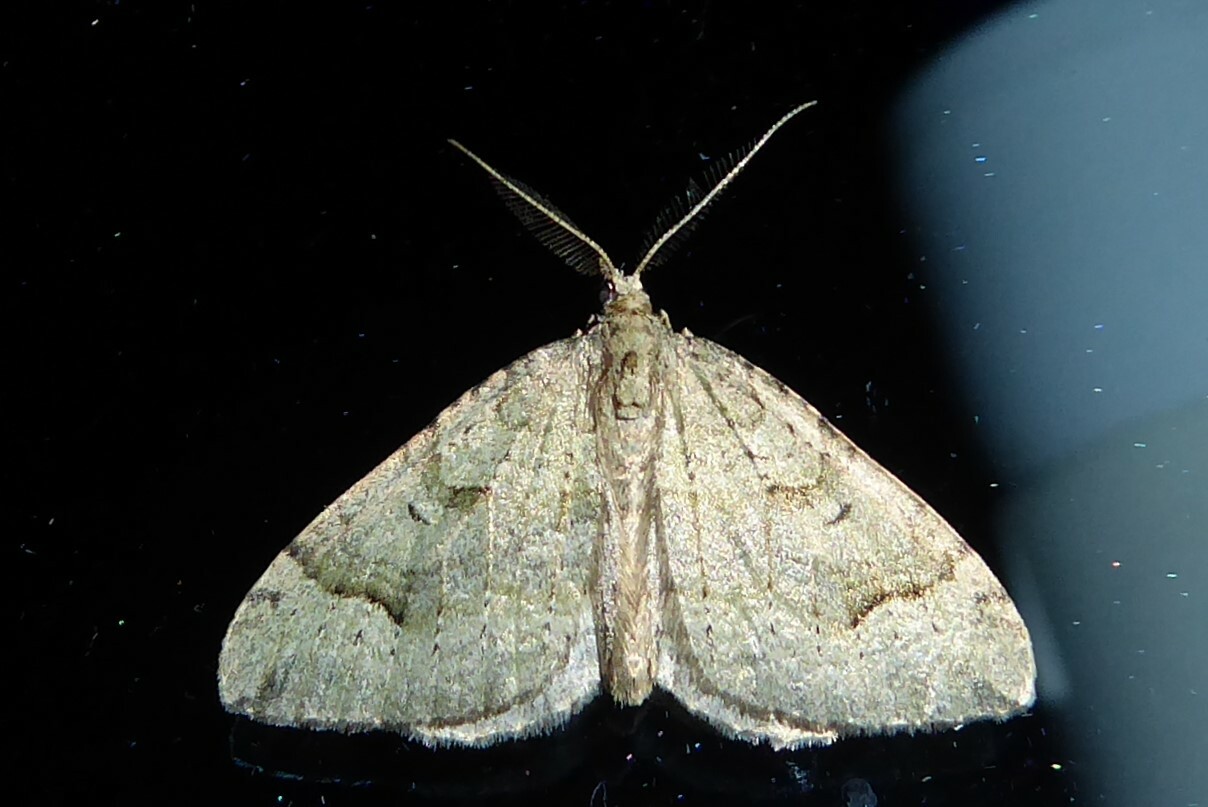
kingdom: Animalia
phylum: Arthropoda
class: Insecta
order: Lepidoptera
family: Geometridae
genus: Epyaxa
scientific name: Epyaxa rosearia
